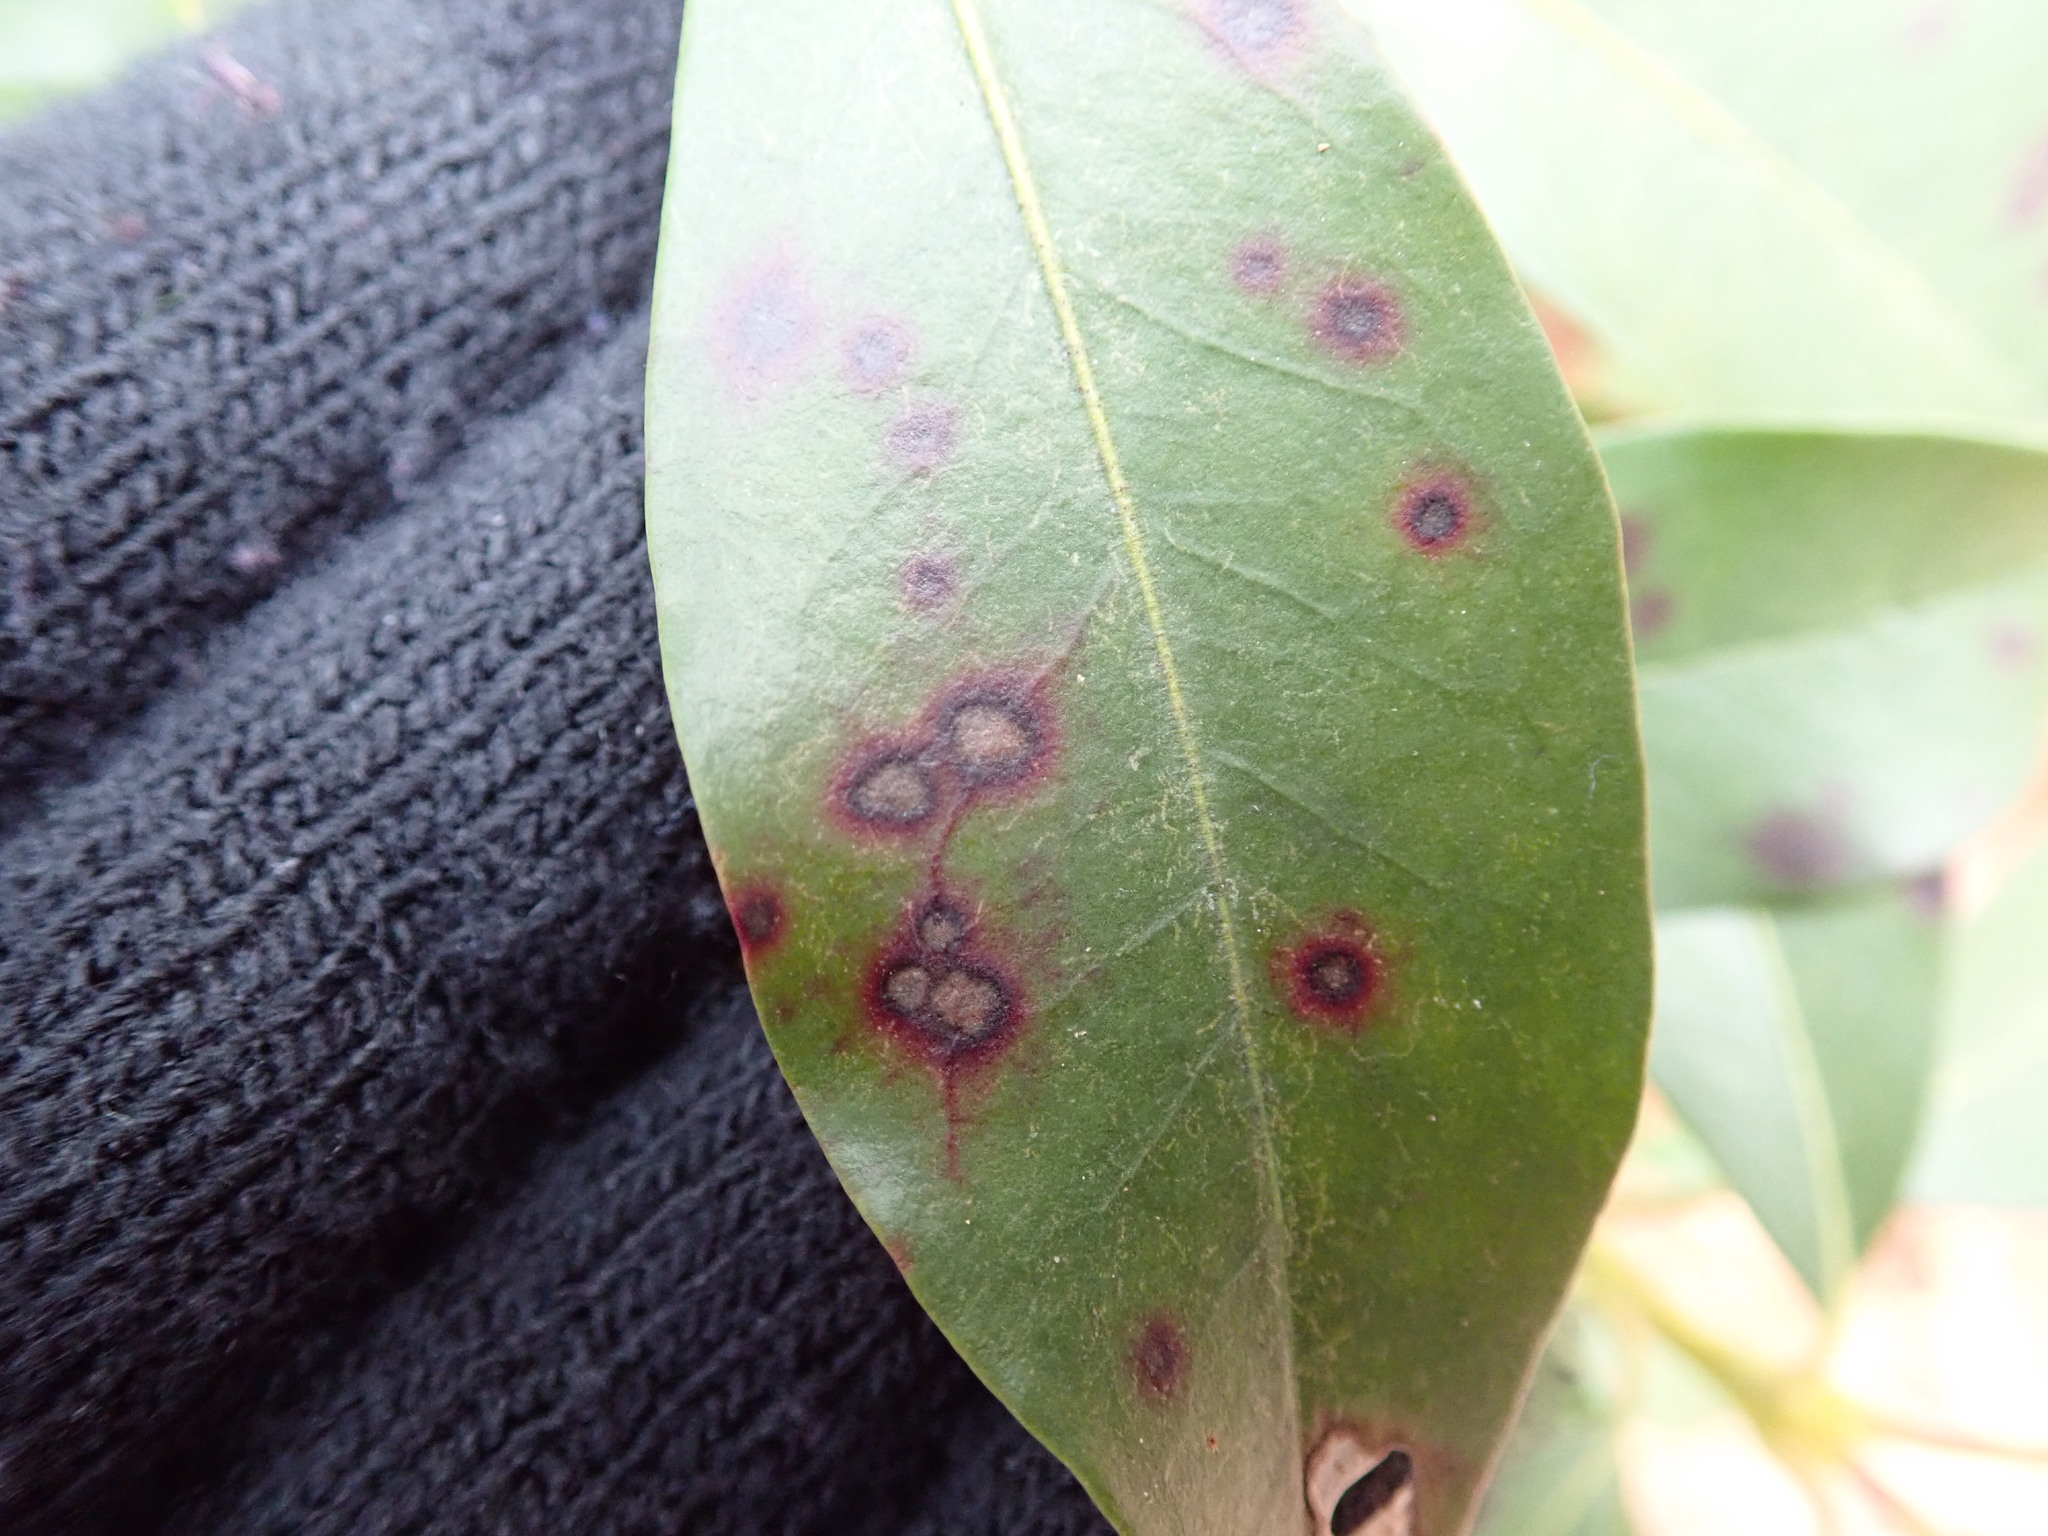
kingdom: Fungi
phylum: Ascomycota
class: Dothideomycetes
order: Mycosphaerellales
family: Mycosphaerellaceae
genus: Mycosphaerella
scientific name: Mycosphaerella colorata
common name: Mountain laurel leaf spot
